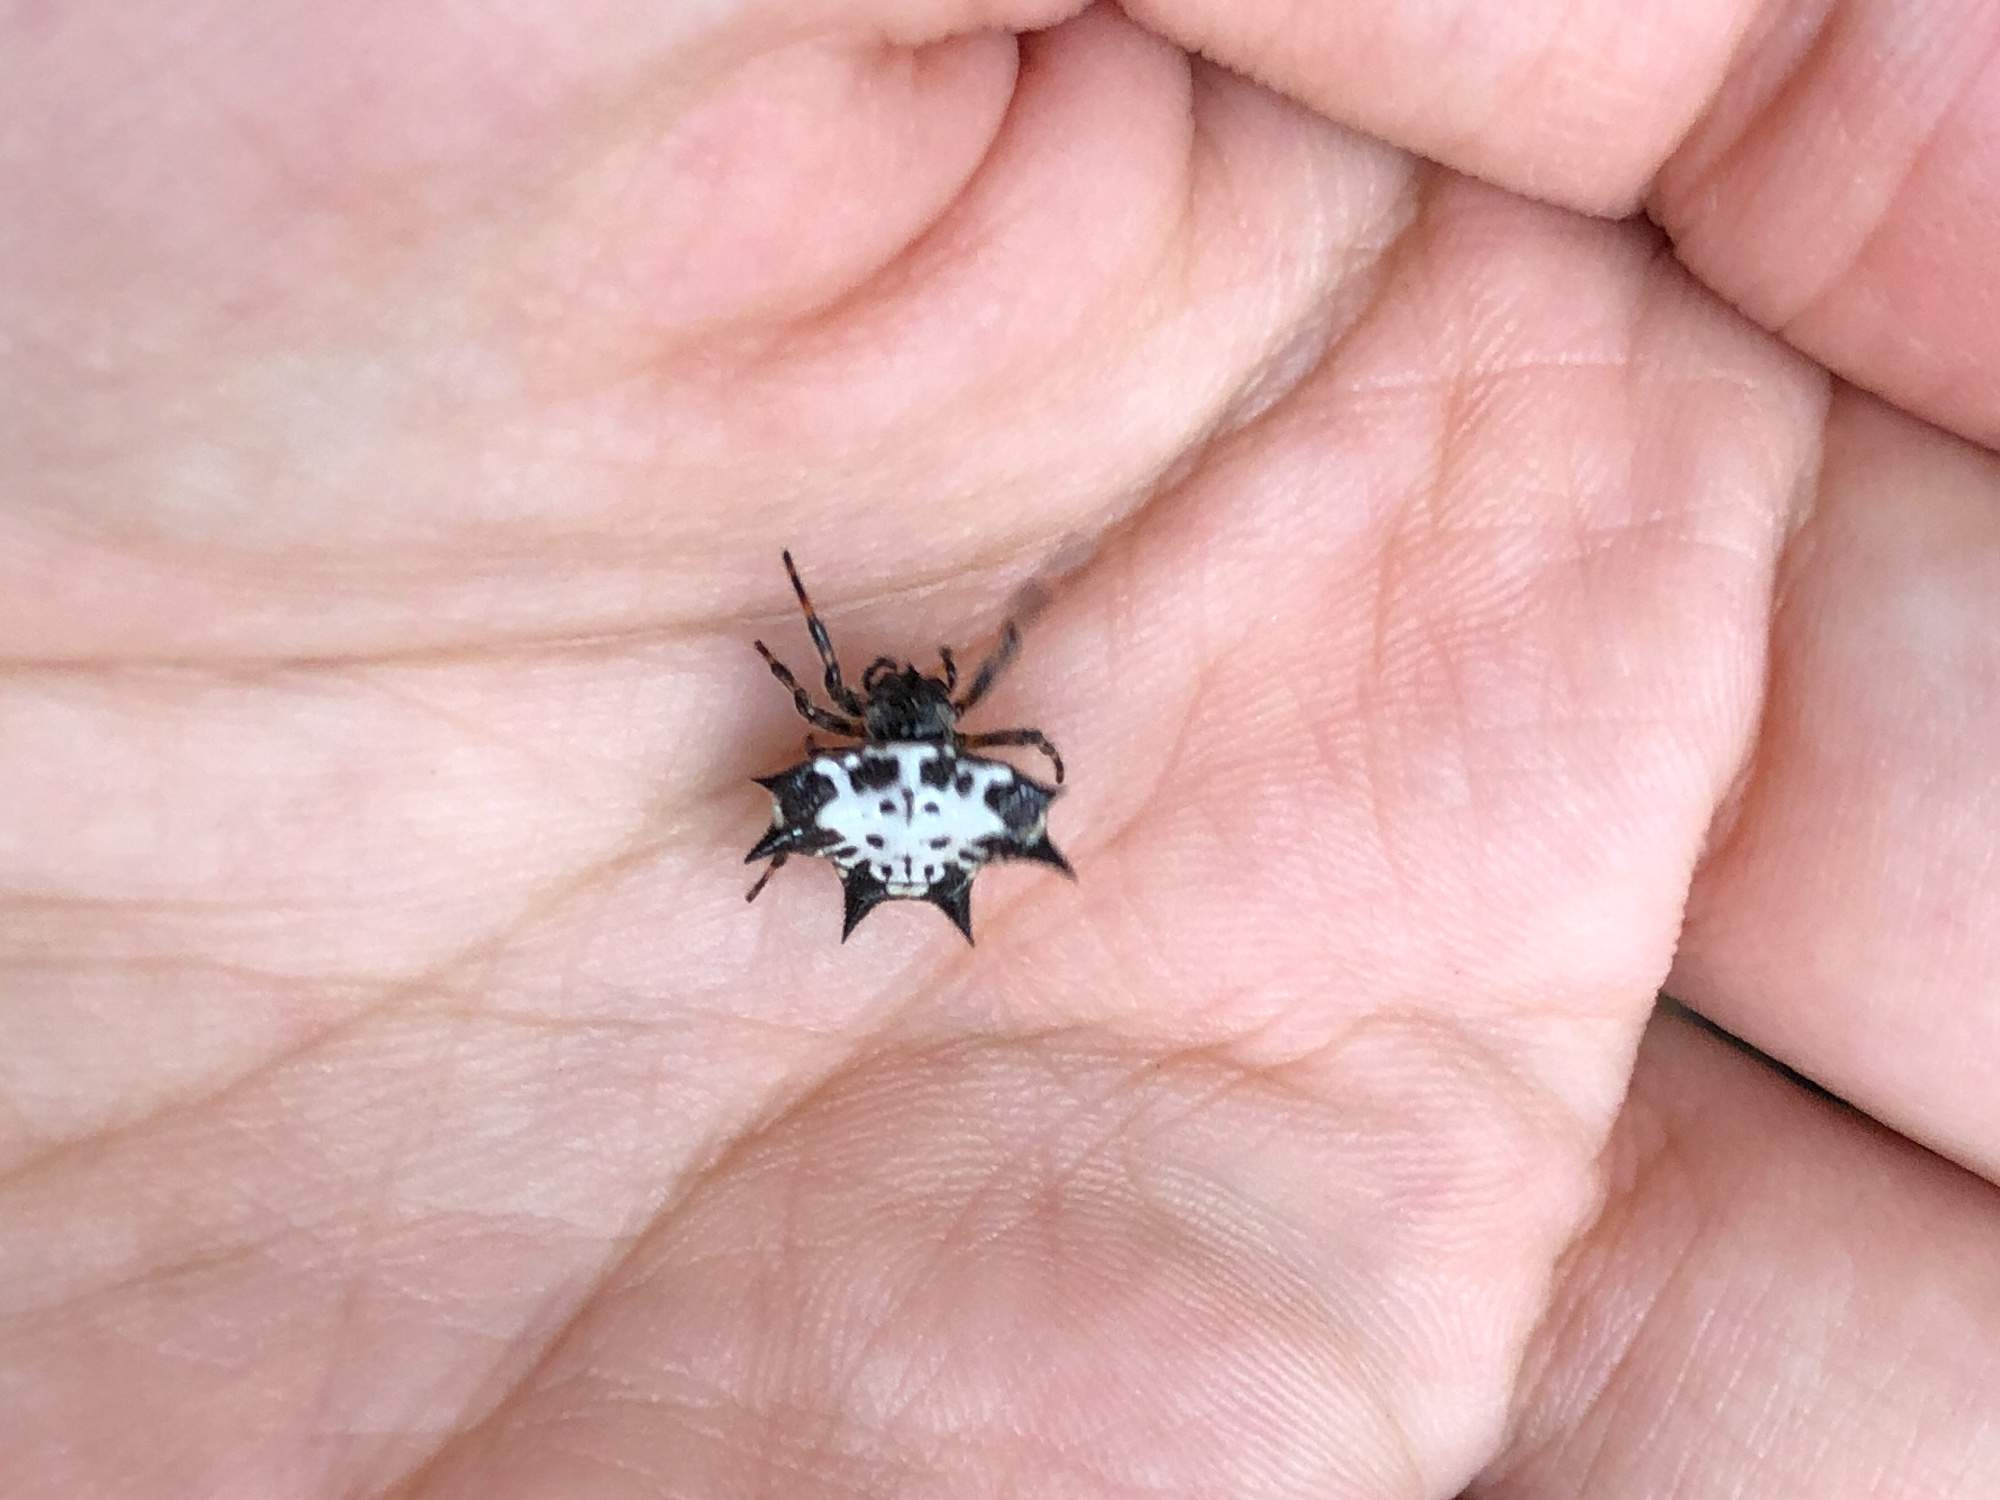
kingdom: Animalia
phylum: Arthropoda
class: Arachnida
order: Araneae
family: Araneidae
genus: Gasteracantha
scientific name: Gasteracantha kuhli
